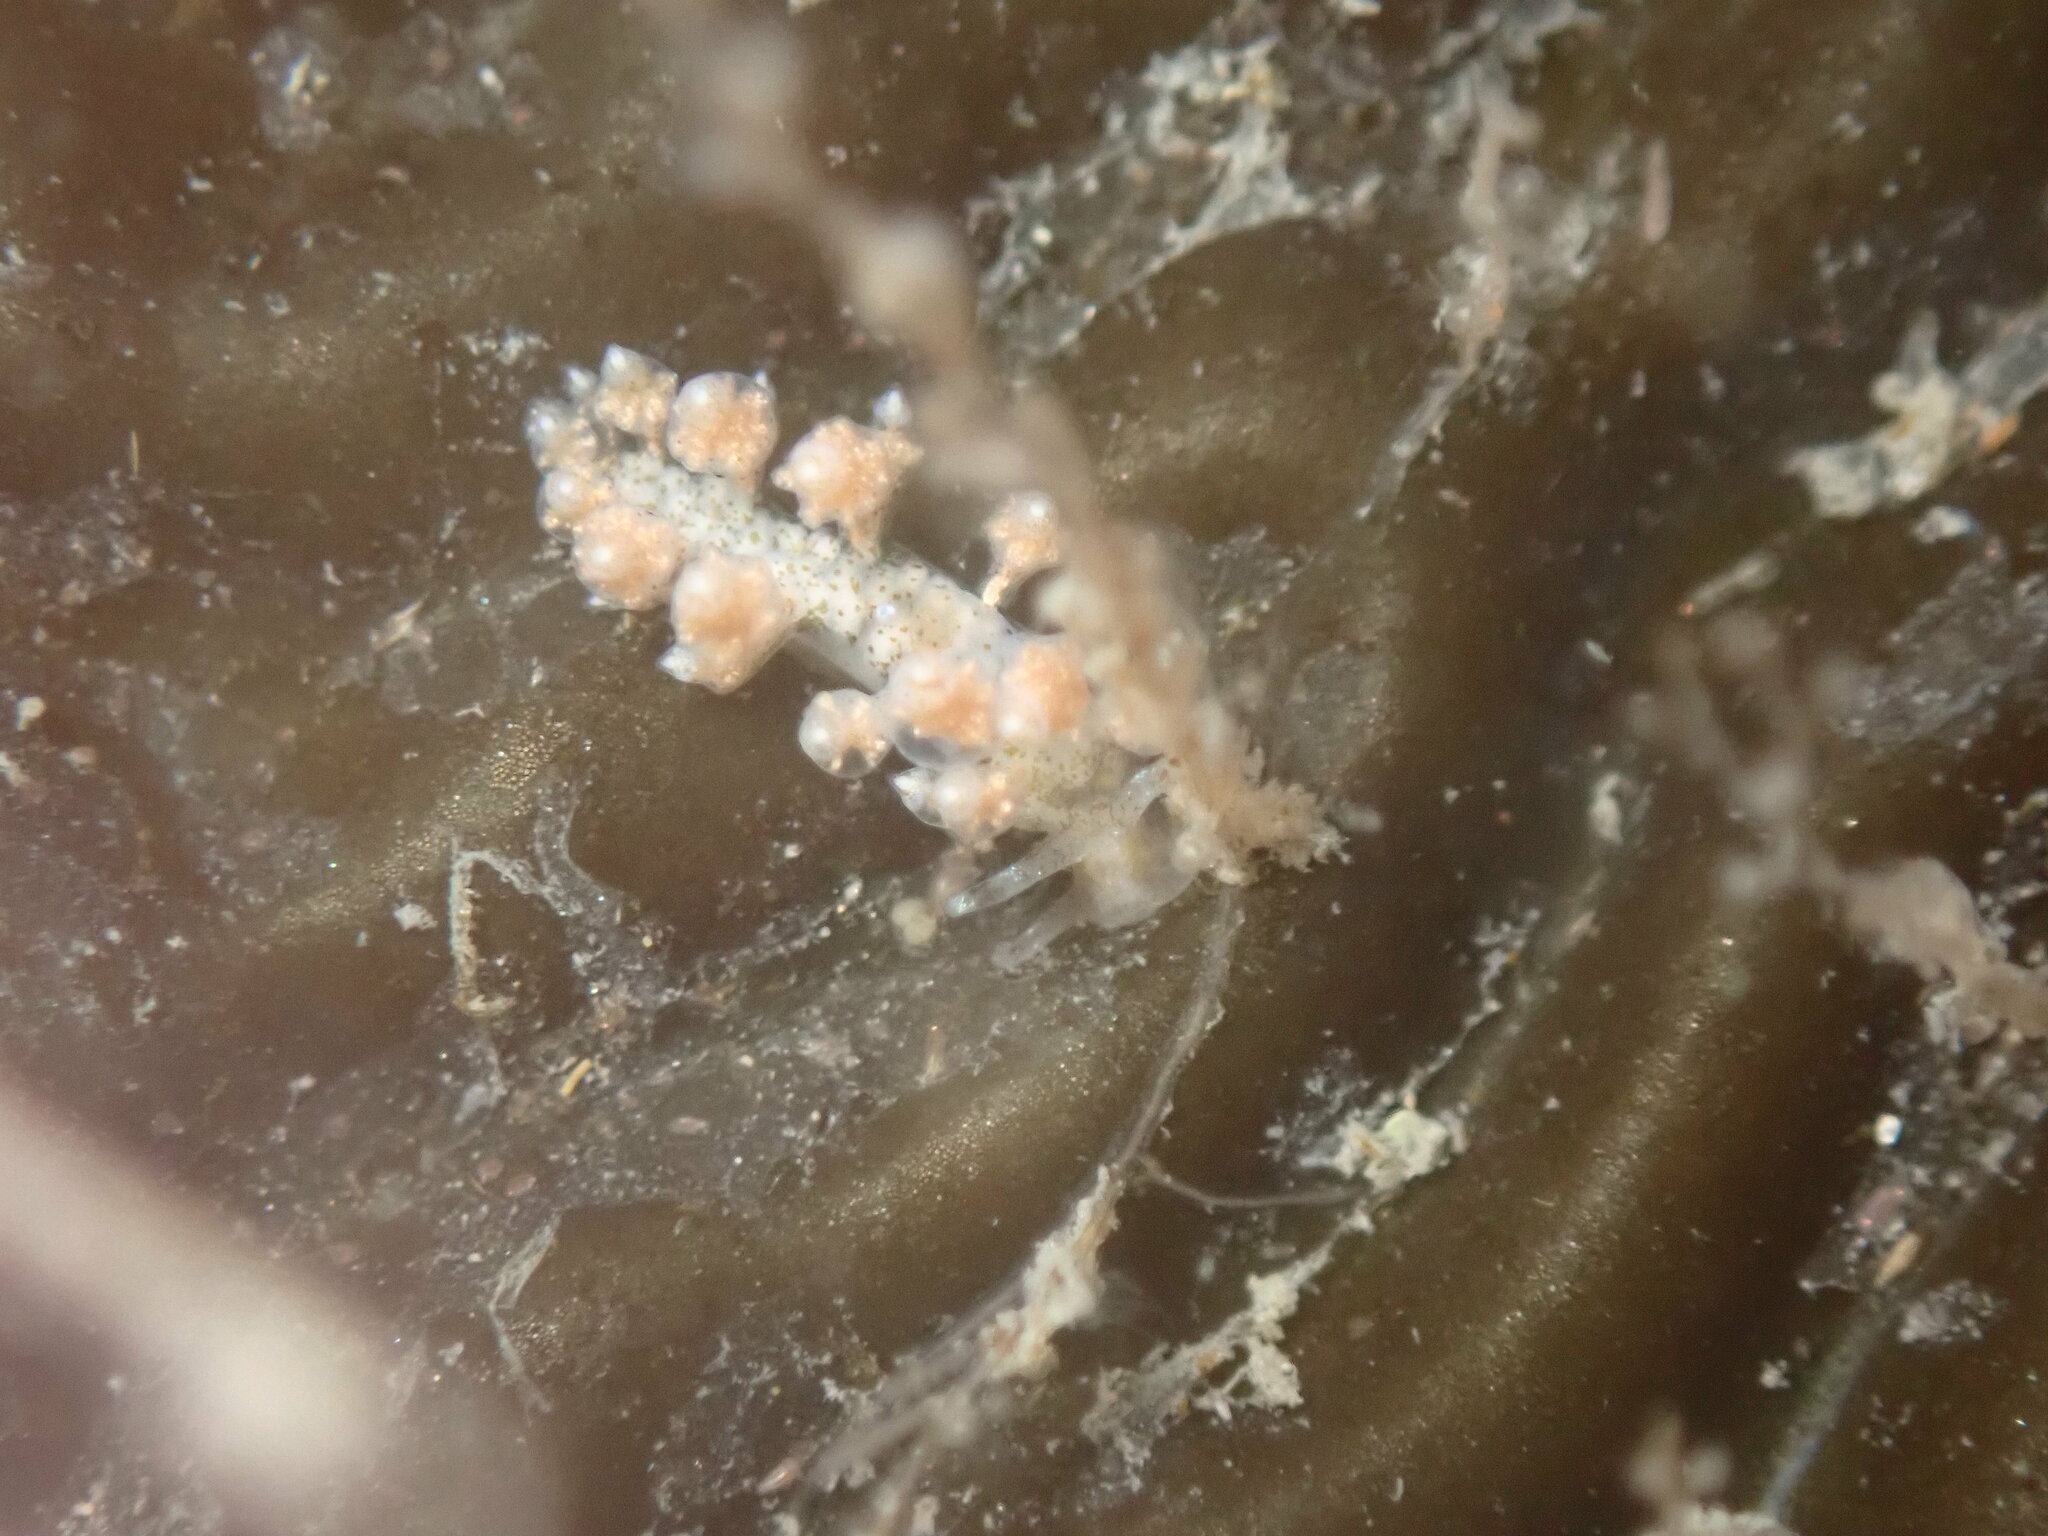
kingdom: Animalia
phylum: Mollusca
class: Gastropoda
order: Nudibranchia
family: Eubranchidae
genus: Eubranchus
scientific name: Eubranchus rustyus
